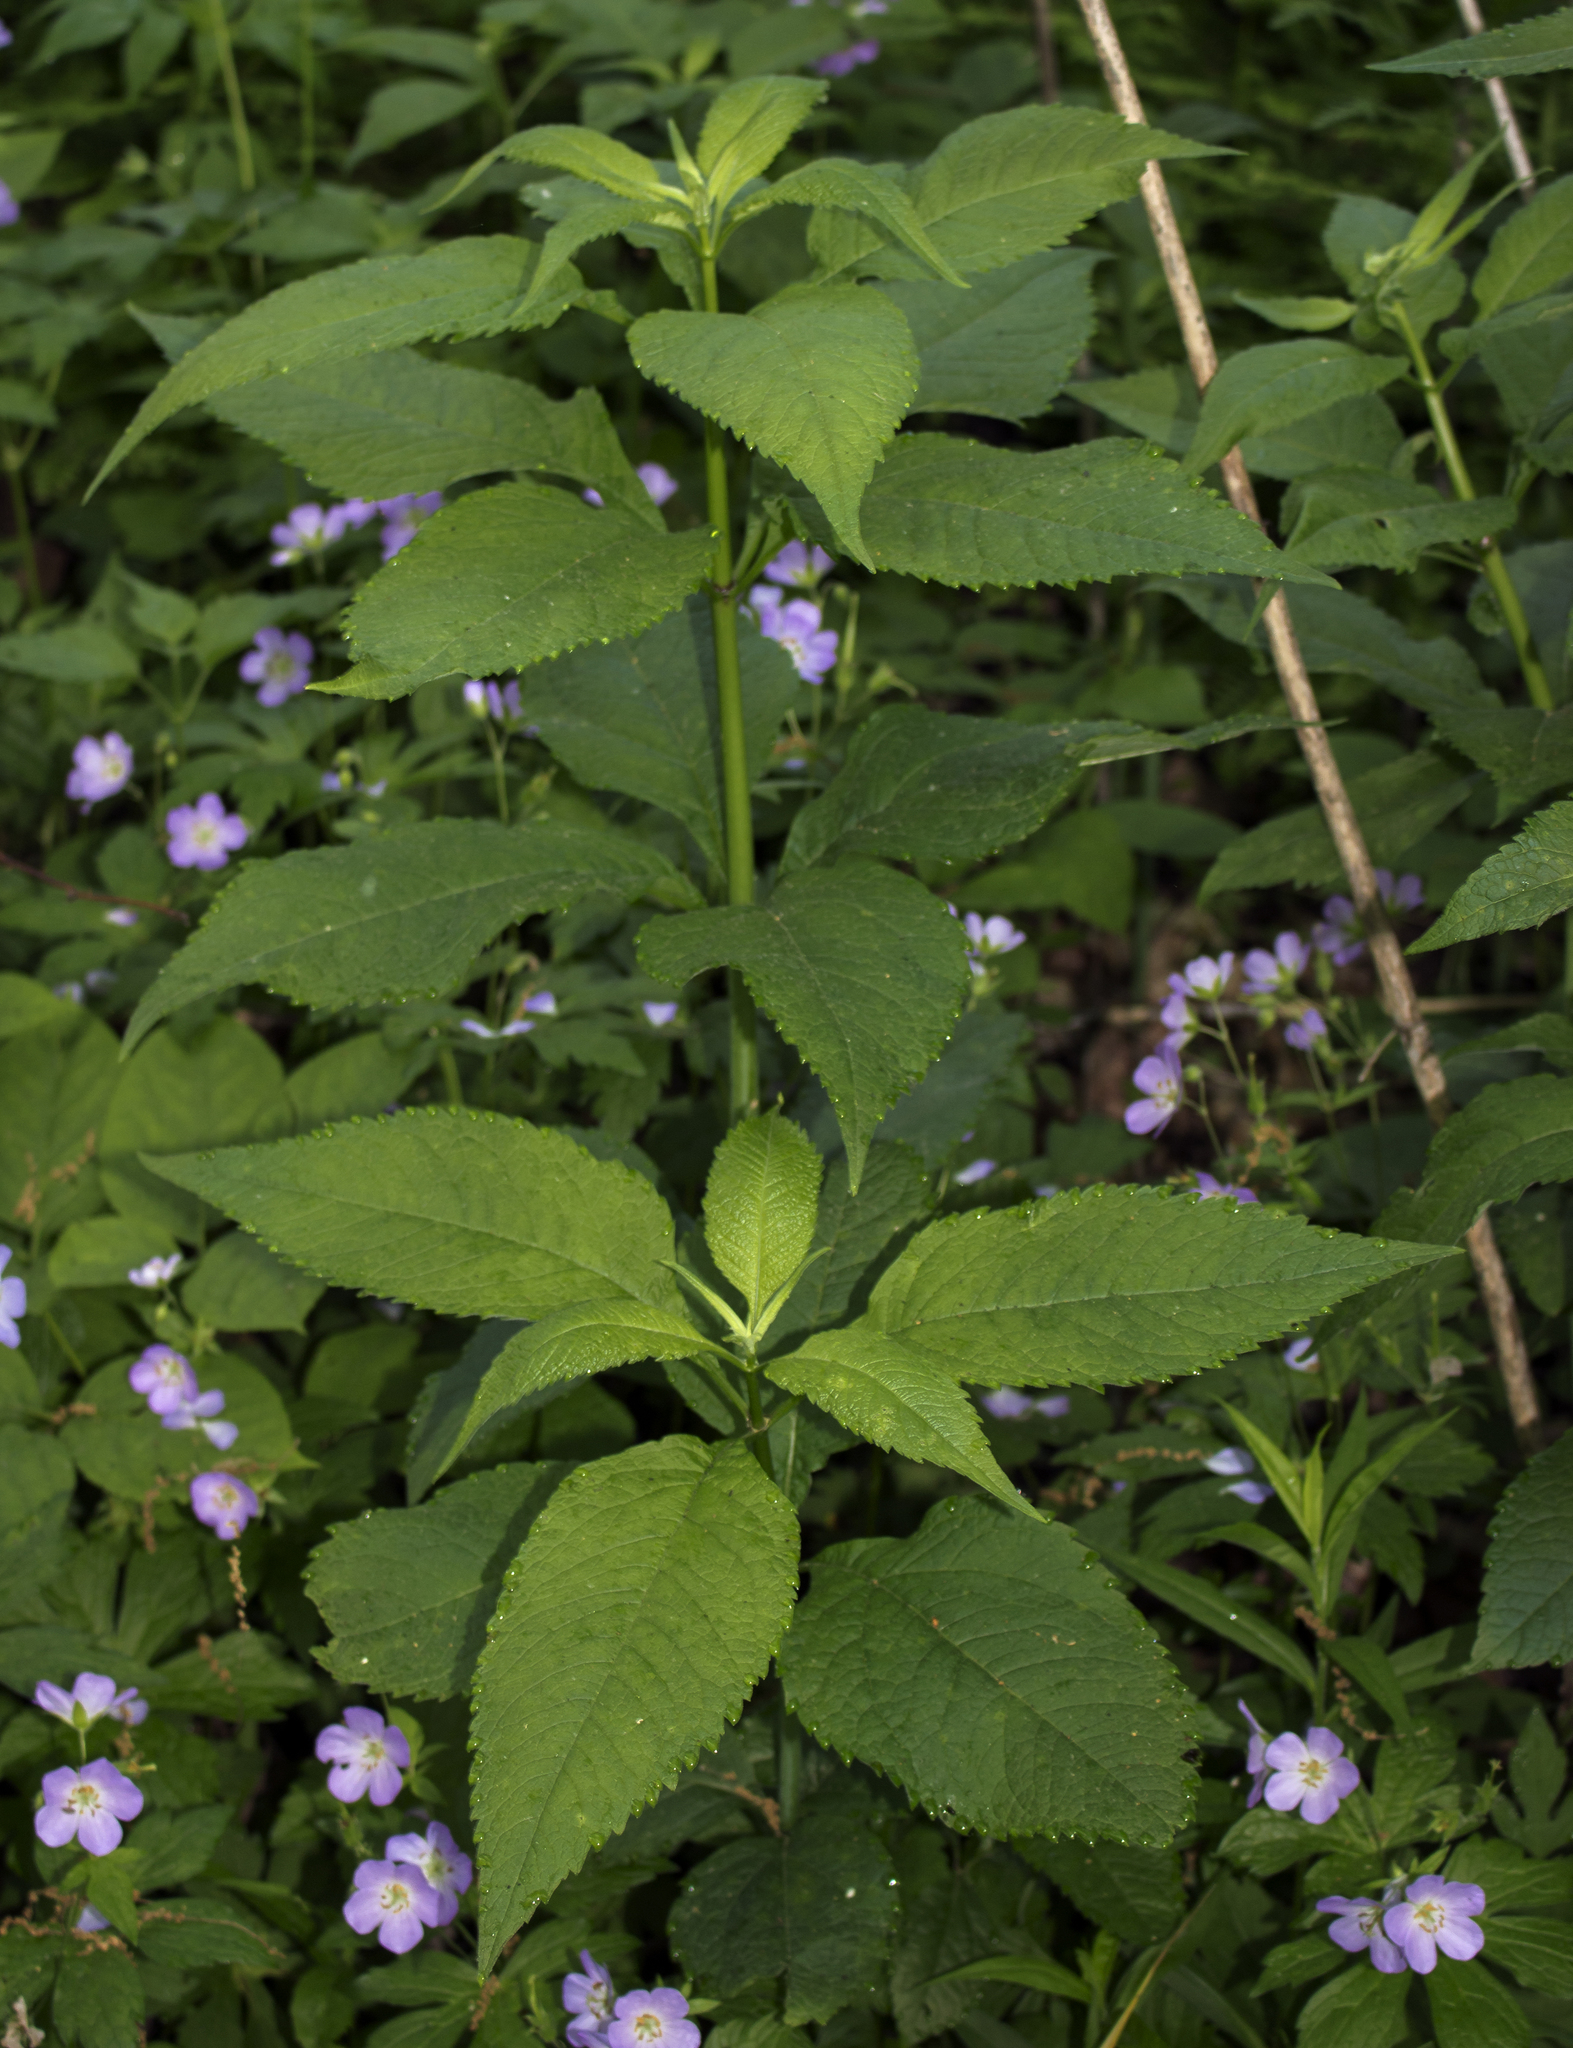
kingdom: Plantae
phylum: Tracheophyta
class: Magnoliopsida
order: Asterales
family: Asteraceae
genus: Eutrochium
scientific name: Eutrochium purpureum
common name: Gravelroot
